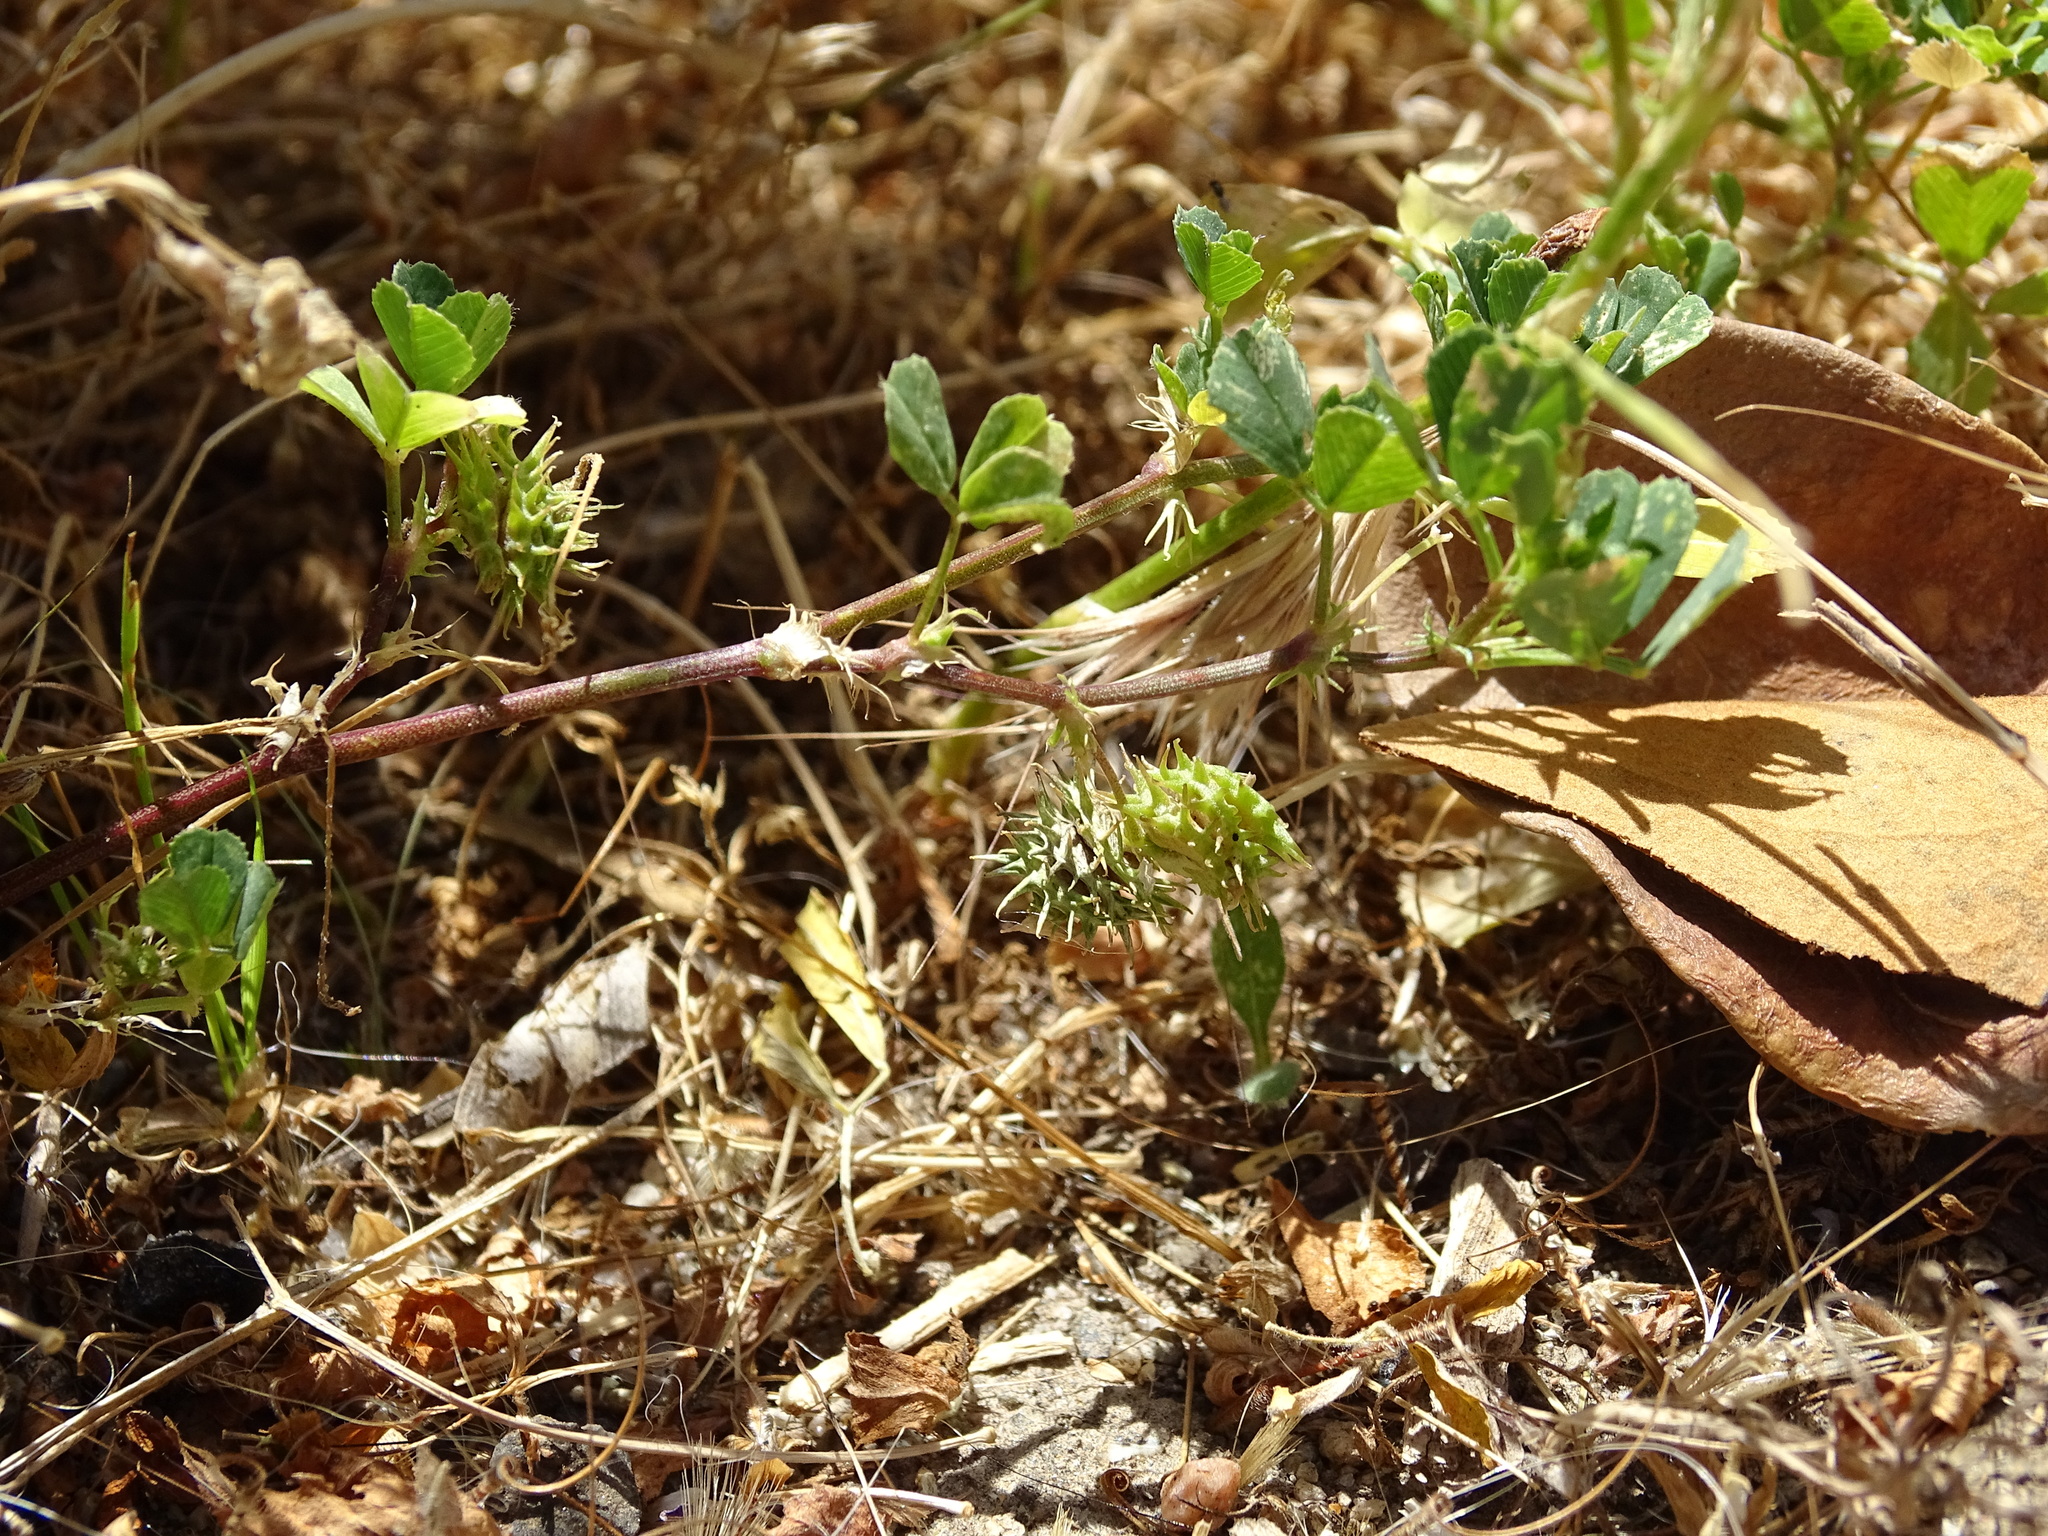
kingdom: Plantae
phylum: Tracheophyta
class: Magnoliopsida
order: Fabales
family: Fabaceae
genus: Medicago
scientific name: Medicago polymorpha
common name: Burclover
